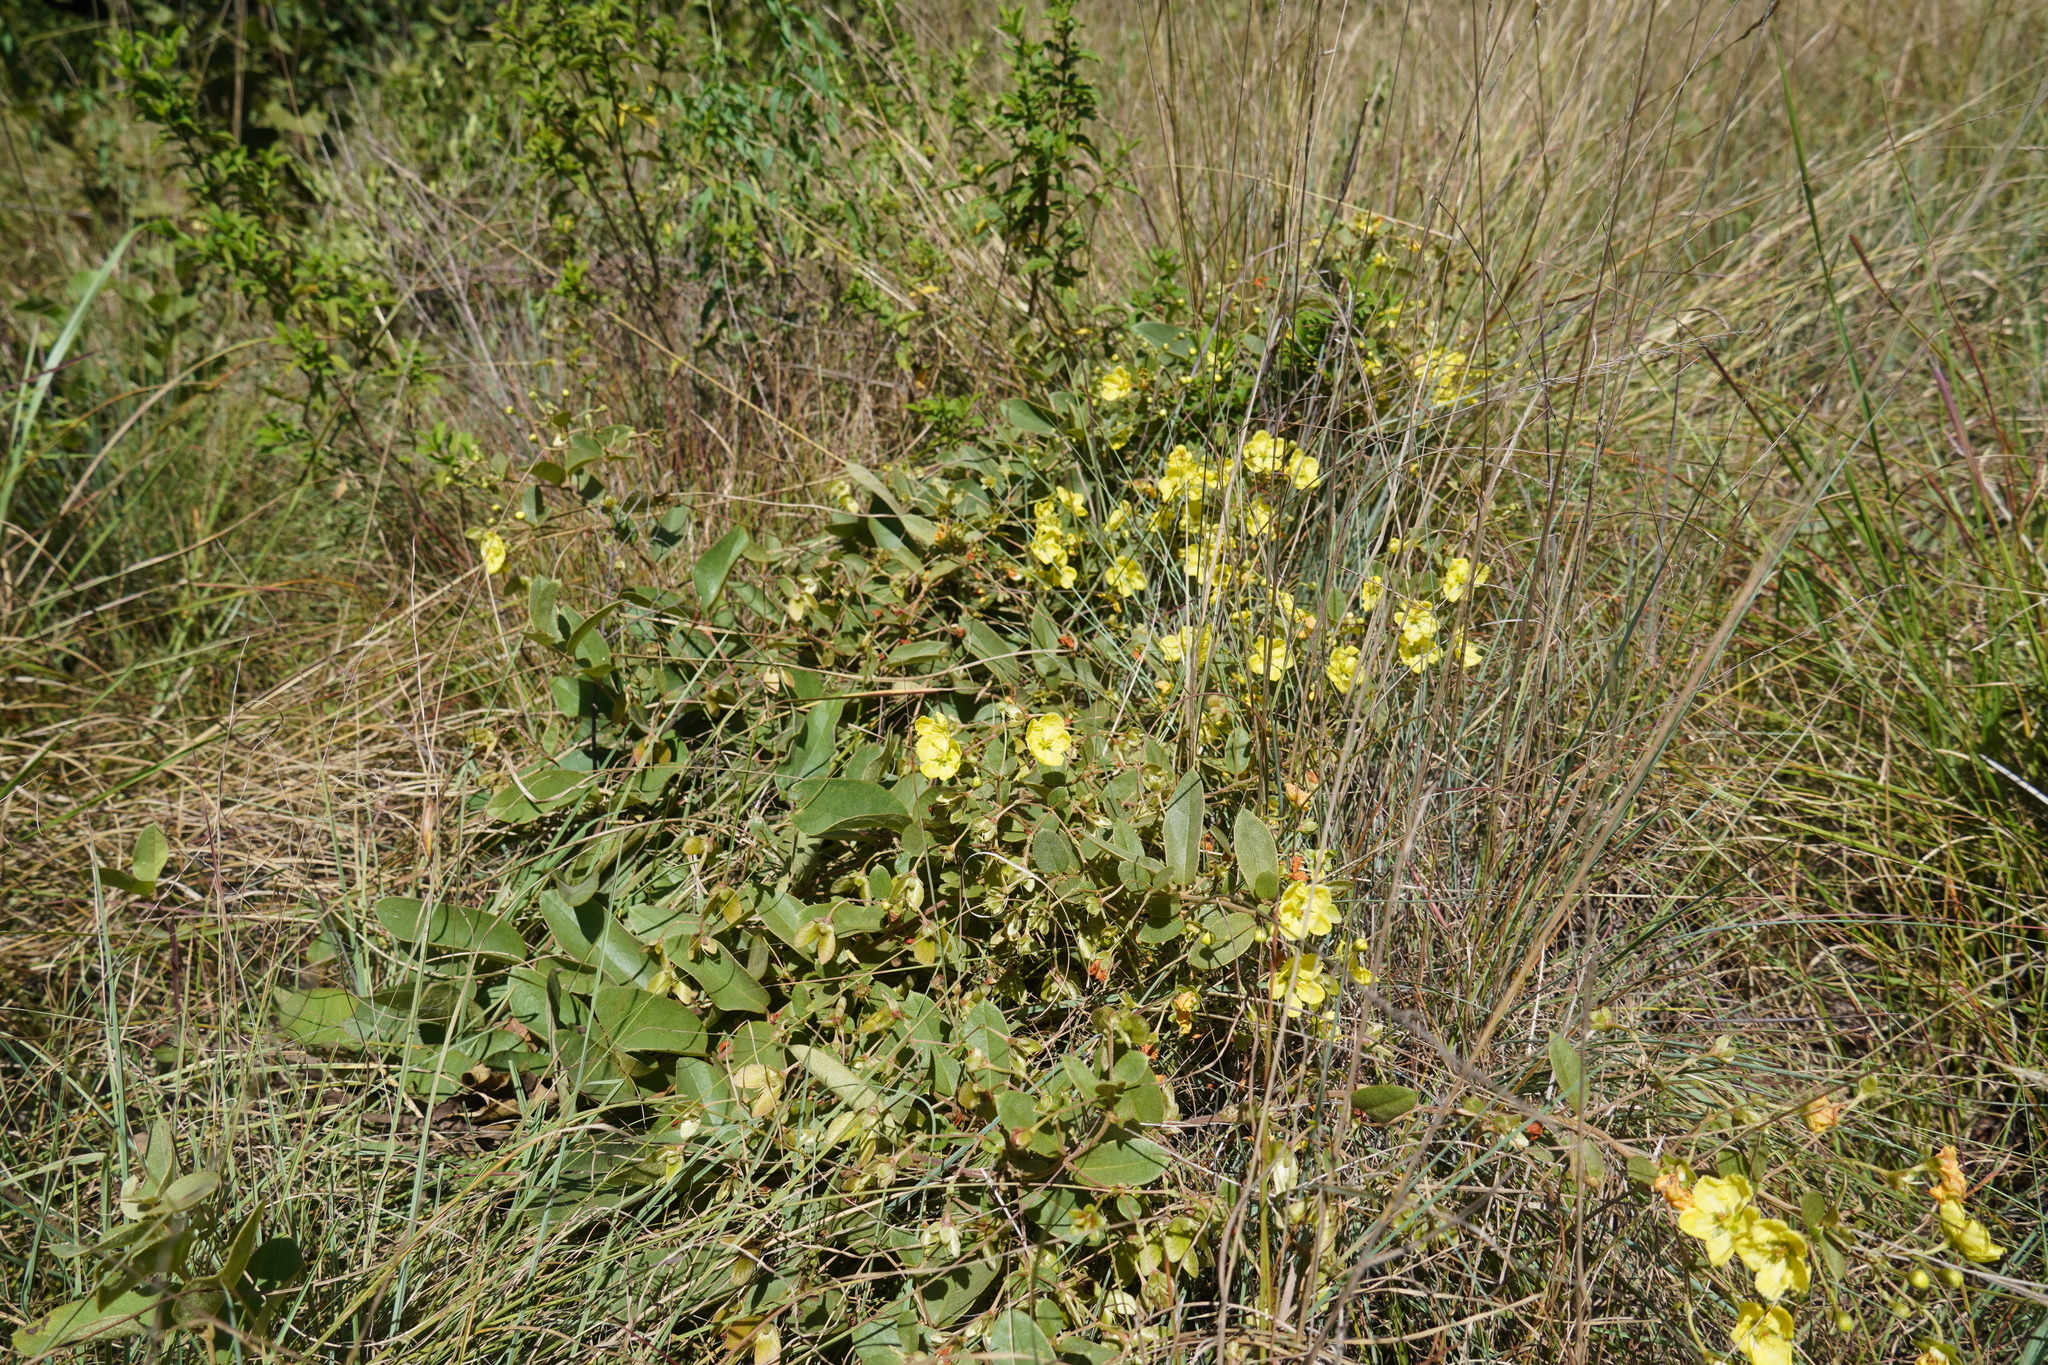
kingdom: Plantae
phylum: Tracheophyta
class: Magnoliopsida
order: Malpighiales
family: Malpighiaceae
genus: Sphedamnocarpus
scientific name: Sphedamnocarpus pruriens
